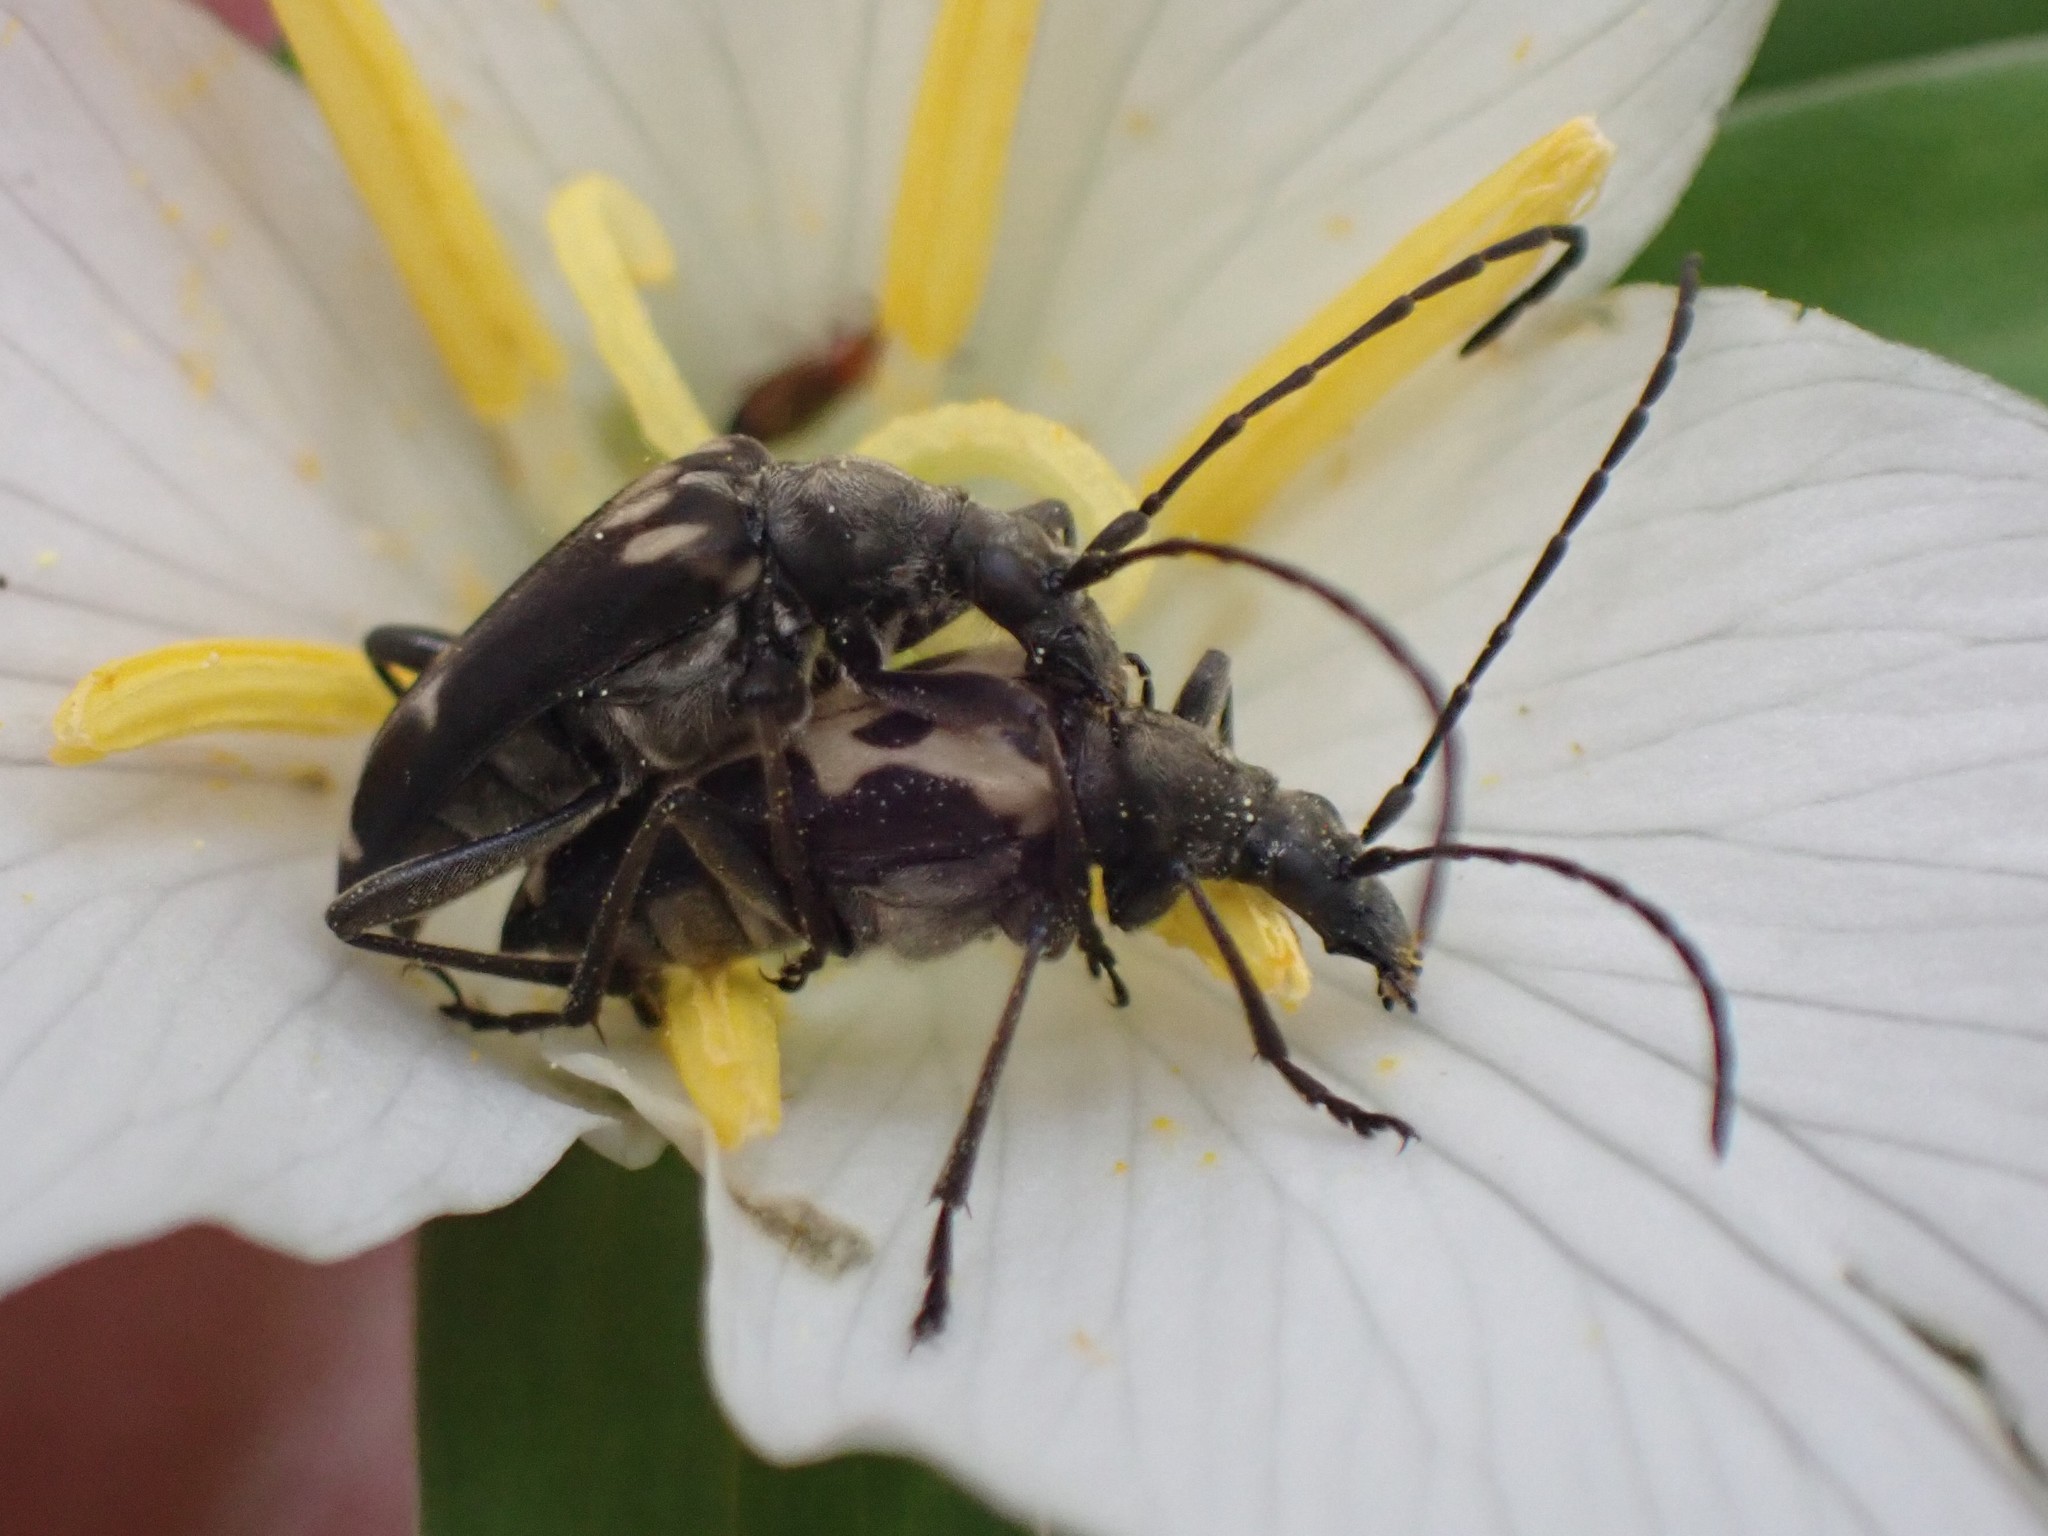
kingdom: Animalia
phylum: Arthropoda
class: Insecta
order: Coleoptera
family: Cerambycidae
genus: Evodinus
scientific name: Evodinus monticola
